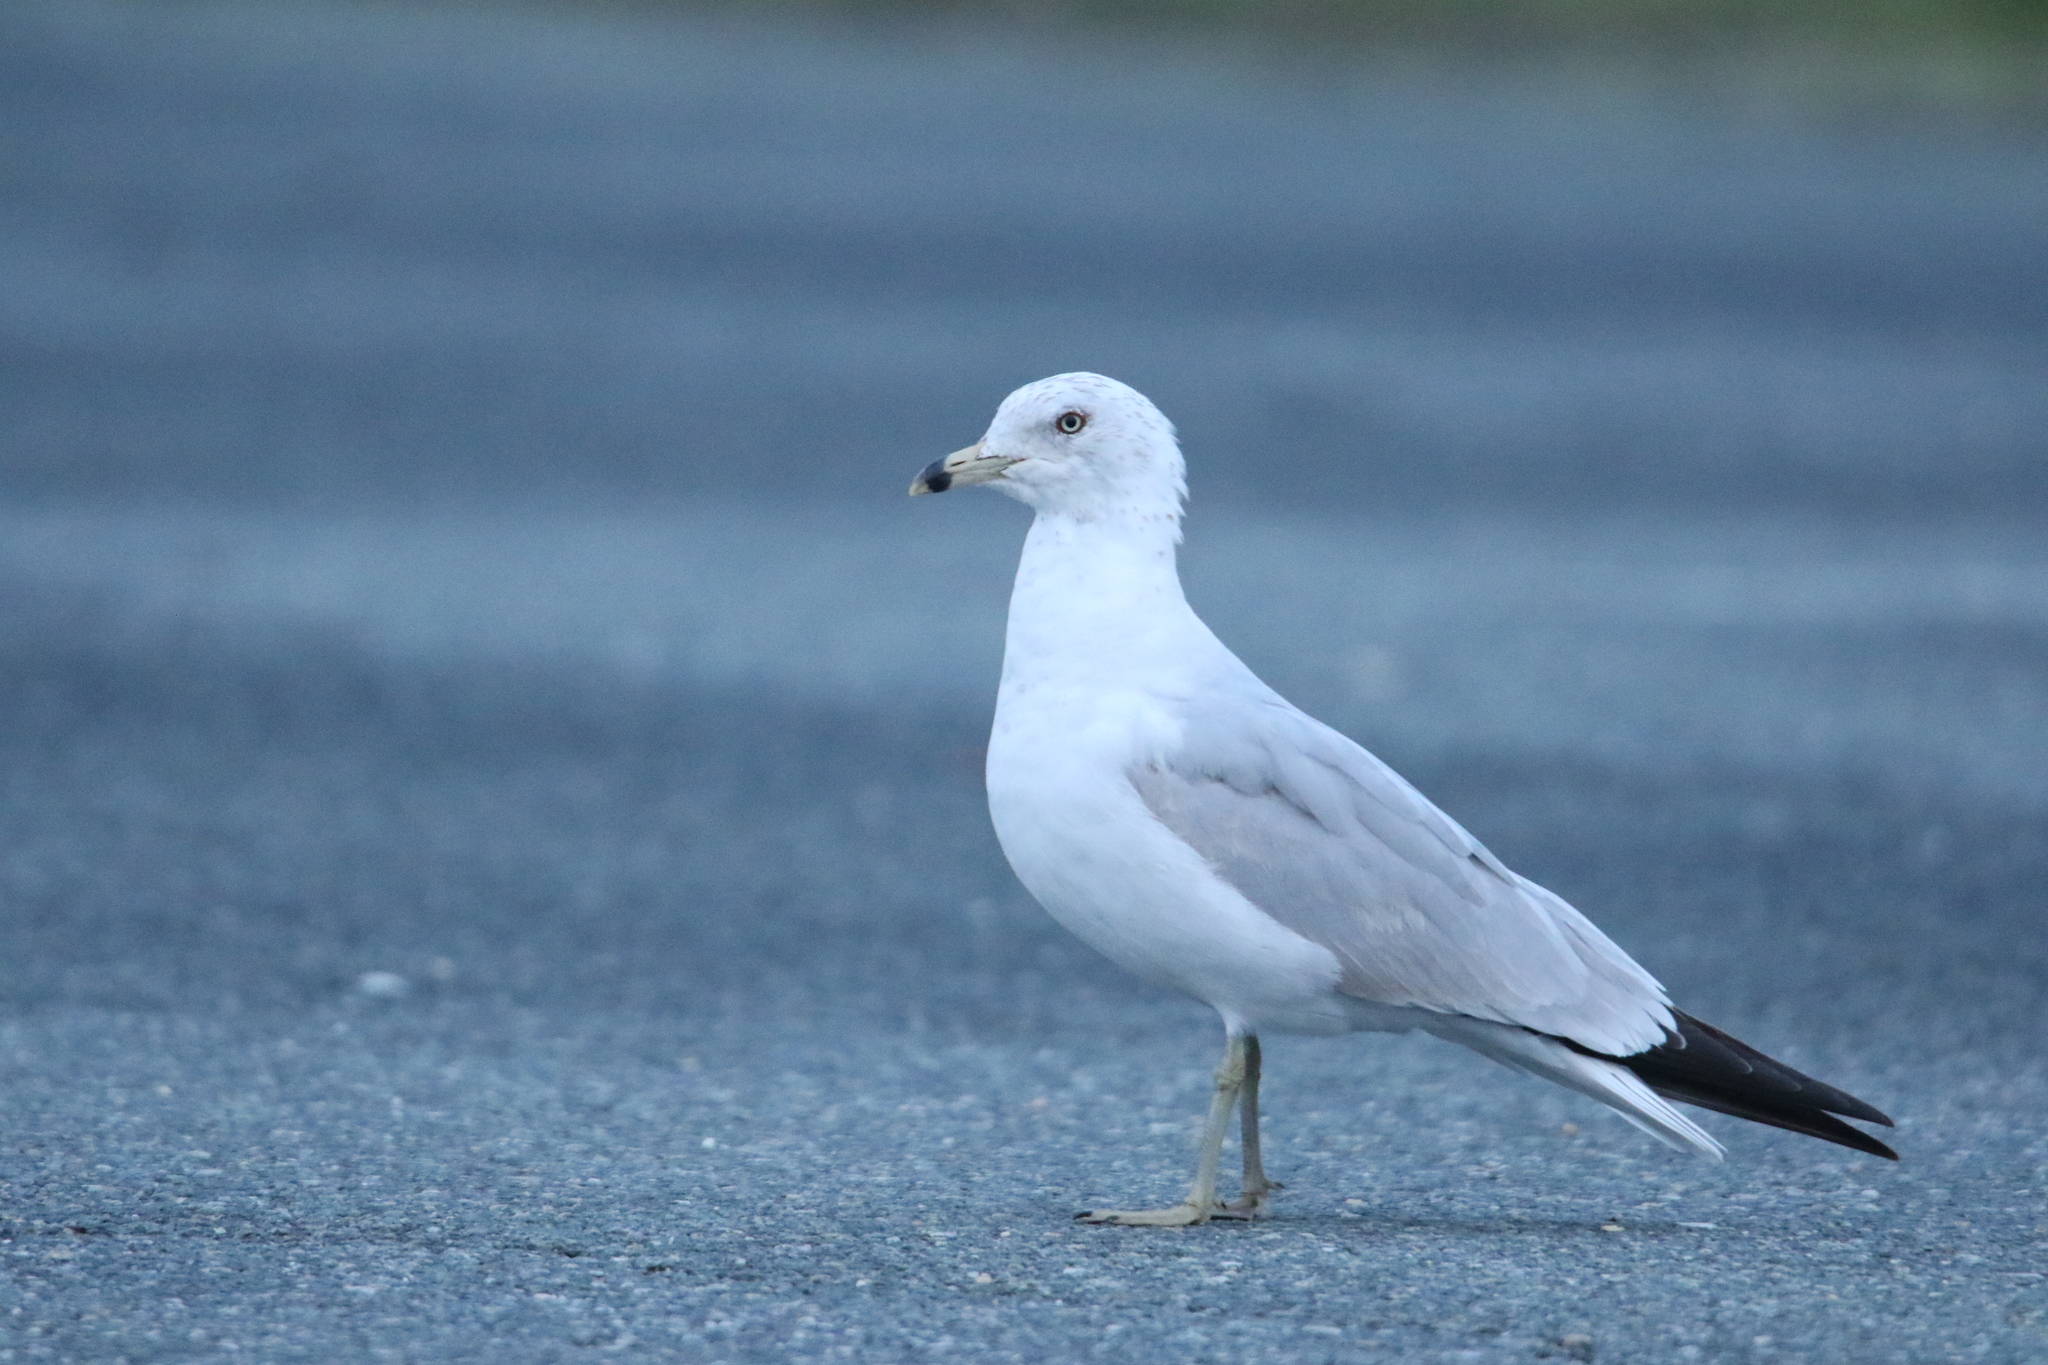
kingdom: Animalia
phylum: Chordata
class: Aves
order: Charadriiformes
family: Laridae
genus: Larus
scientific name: Larus delawarensis
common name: Ring-billed gull
